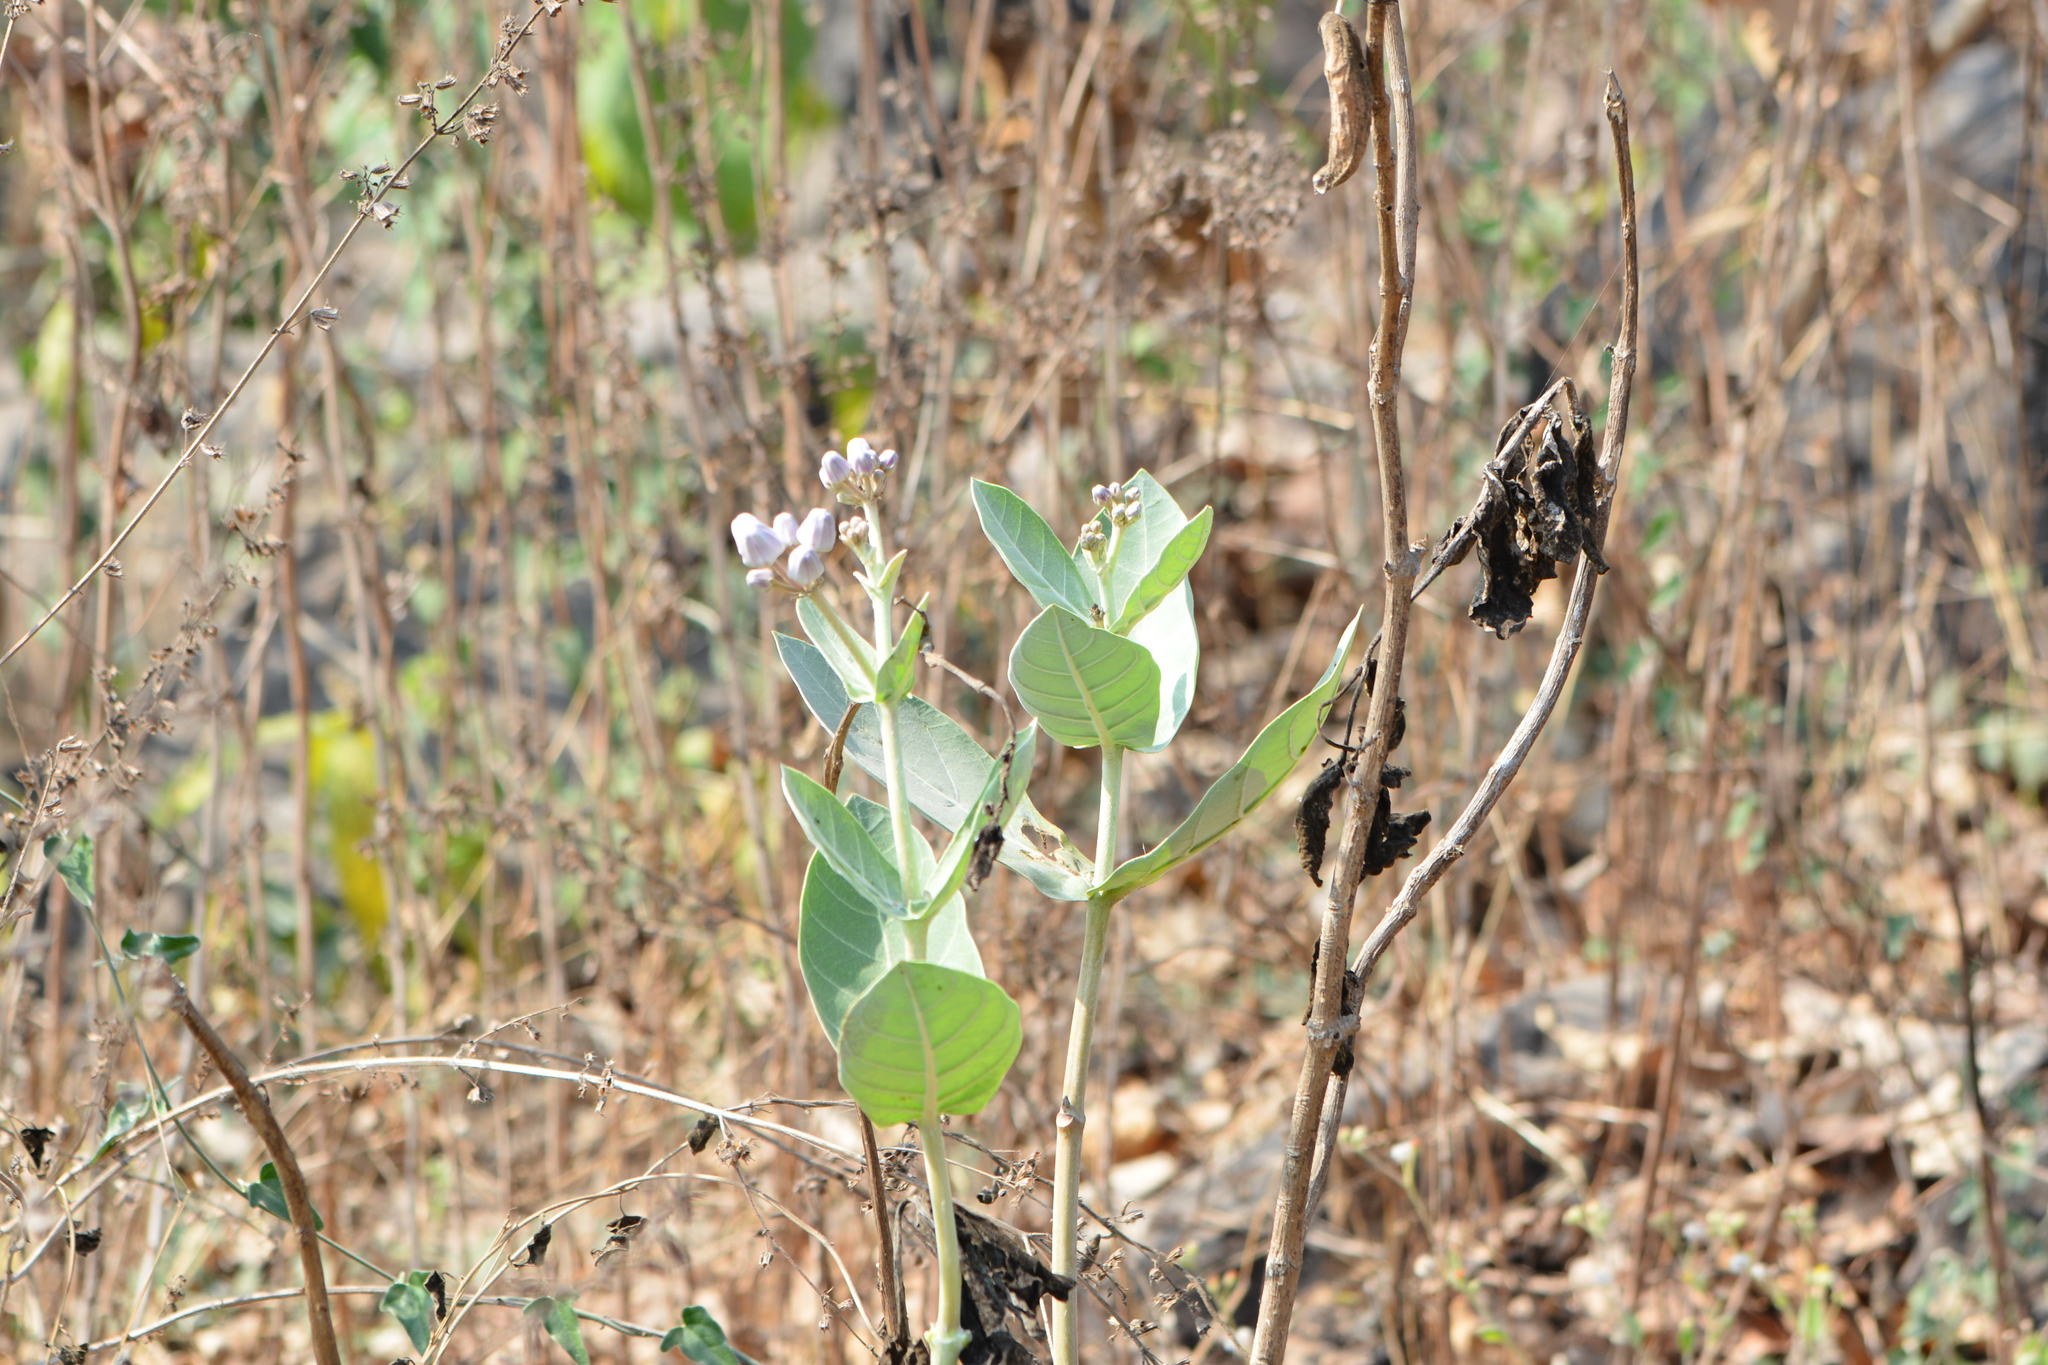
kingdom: Plantae
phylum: Tracheophyta
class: Magnoliopsida
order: Gentianales
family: Apocynaceae
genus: Calotropis
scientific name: Calotropis gigantea
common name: Crown flower
